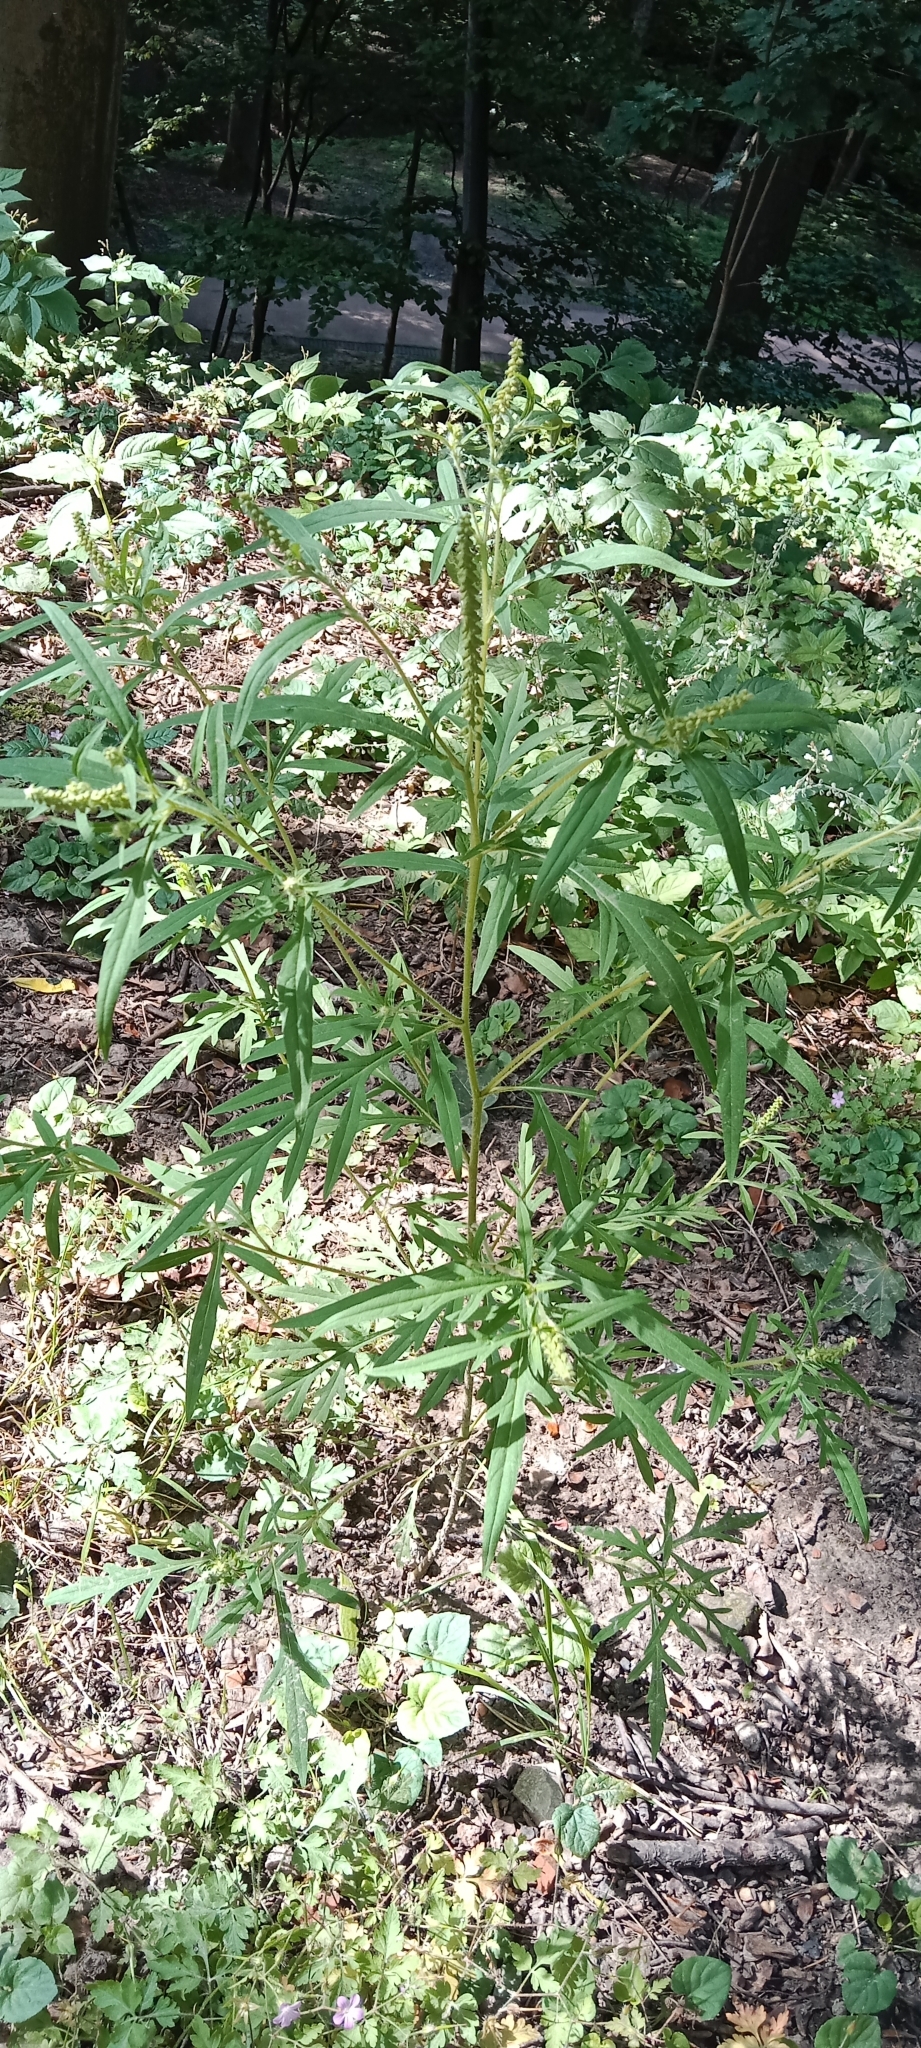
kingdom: Plantae
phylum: Tracheophyta
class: Magnoliopsida
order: Asterales
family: Asteraceae
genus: Ambrosia
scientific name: Ambrosia artemisiifolia
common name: Annual ragweed
